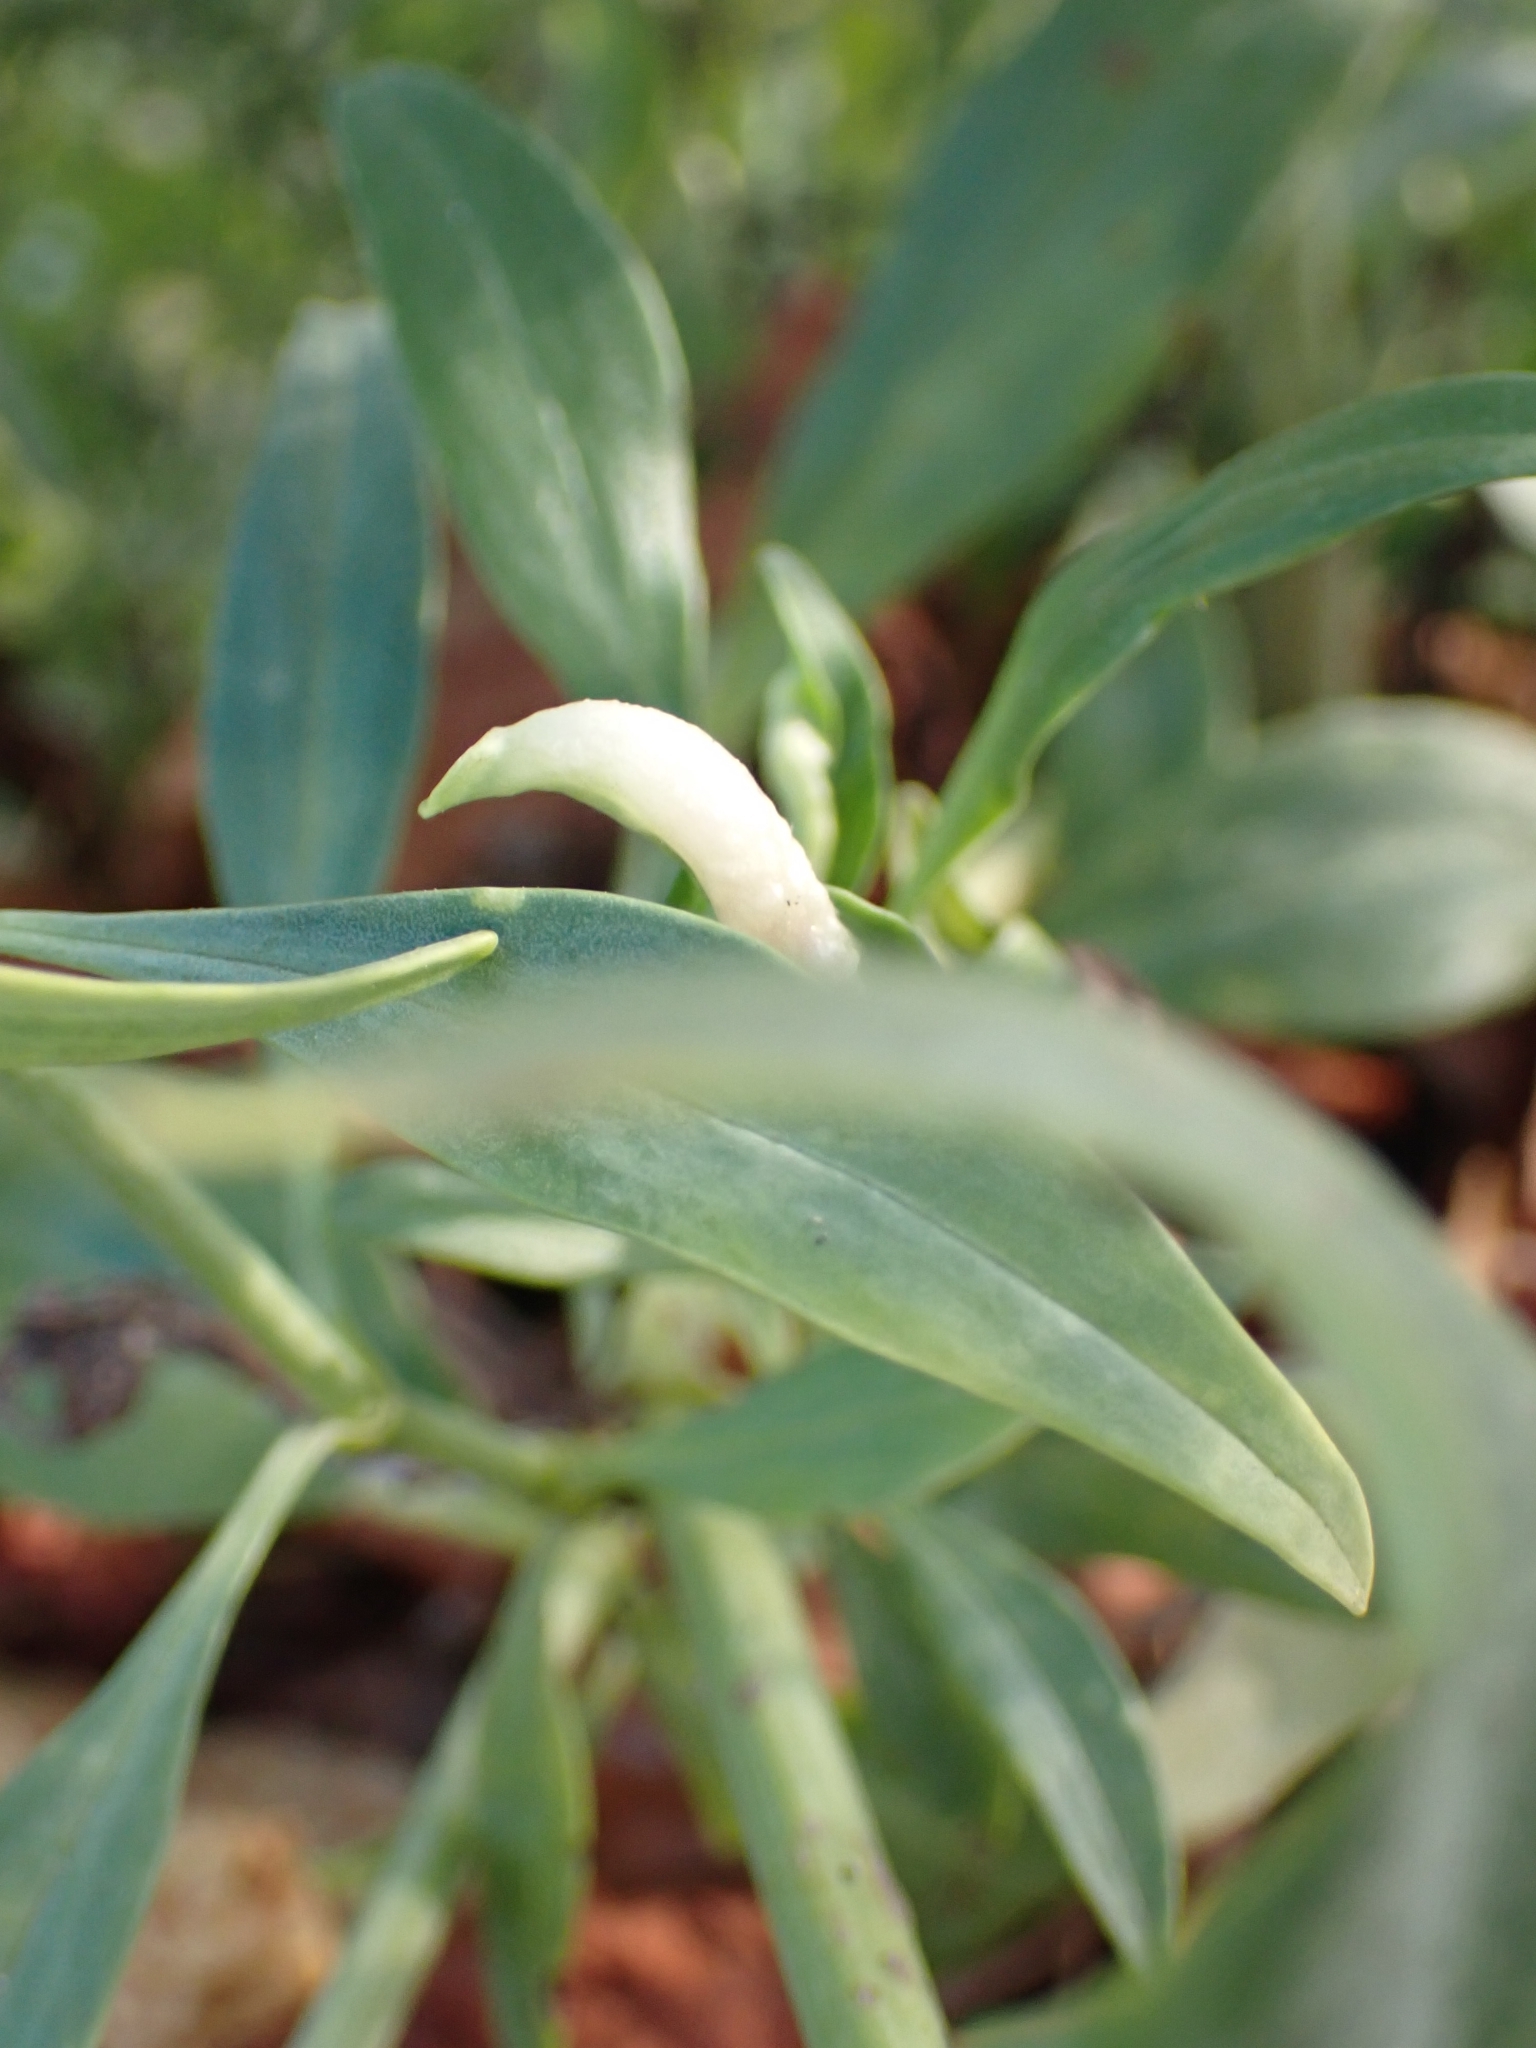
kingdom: Animalia
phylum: Arthropoda
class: Insecta
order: Hemiptera
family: Triozidae
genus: Trioza
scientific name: Trioza centranthi
